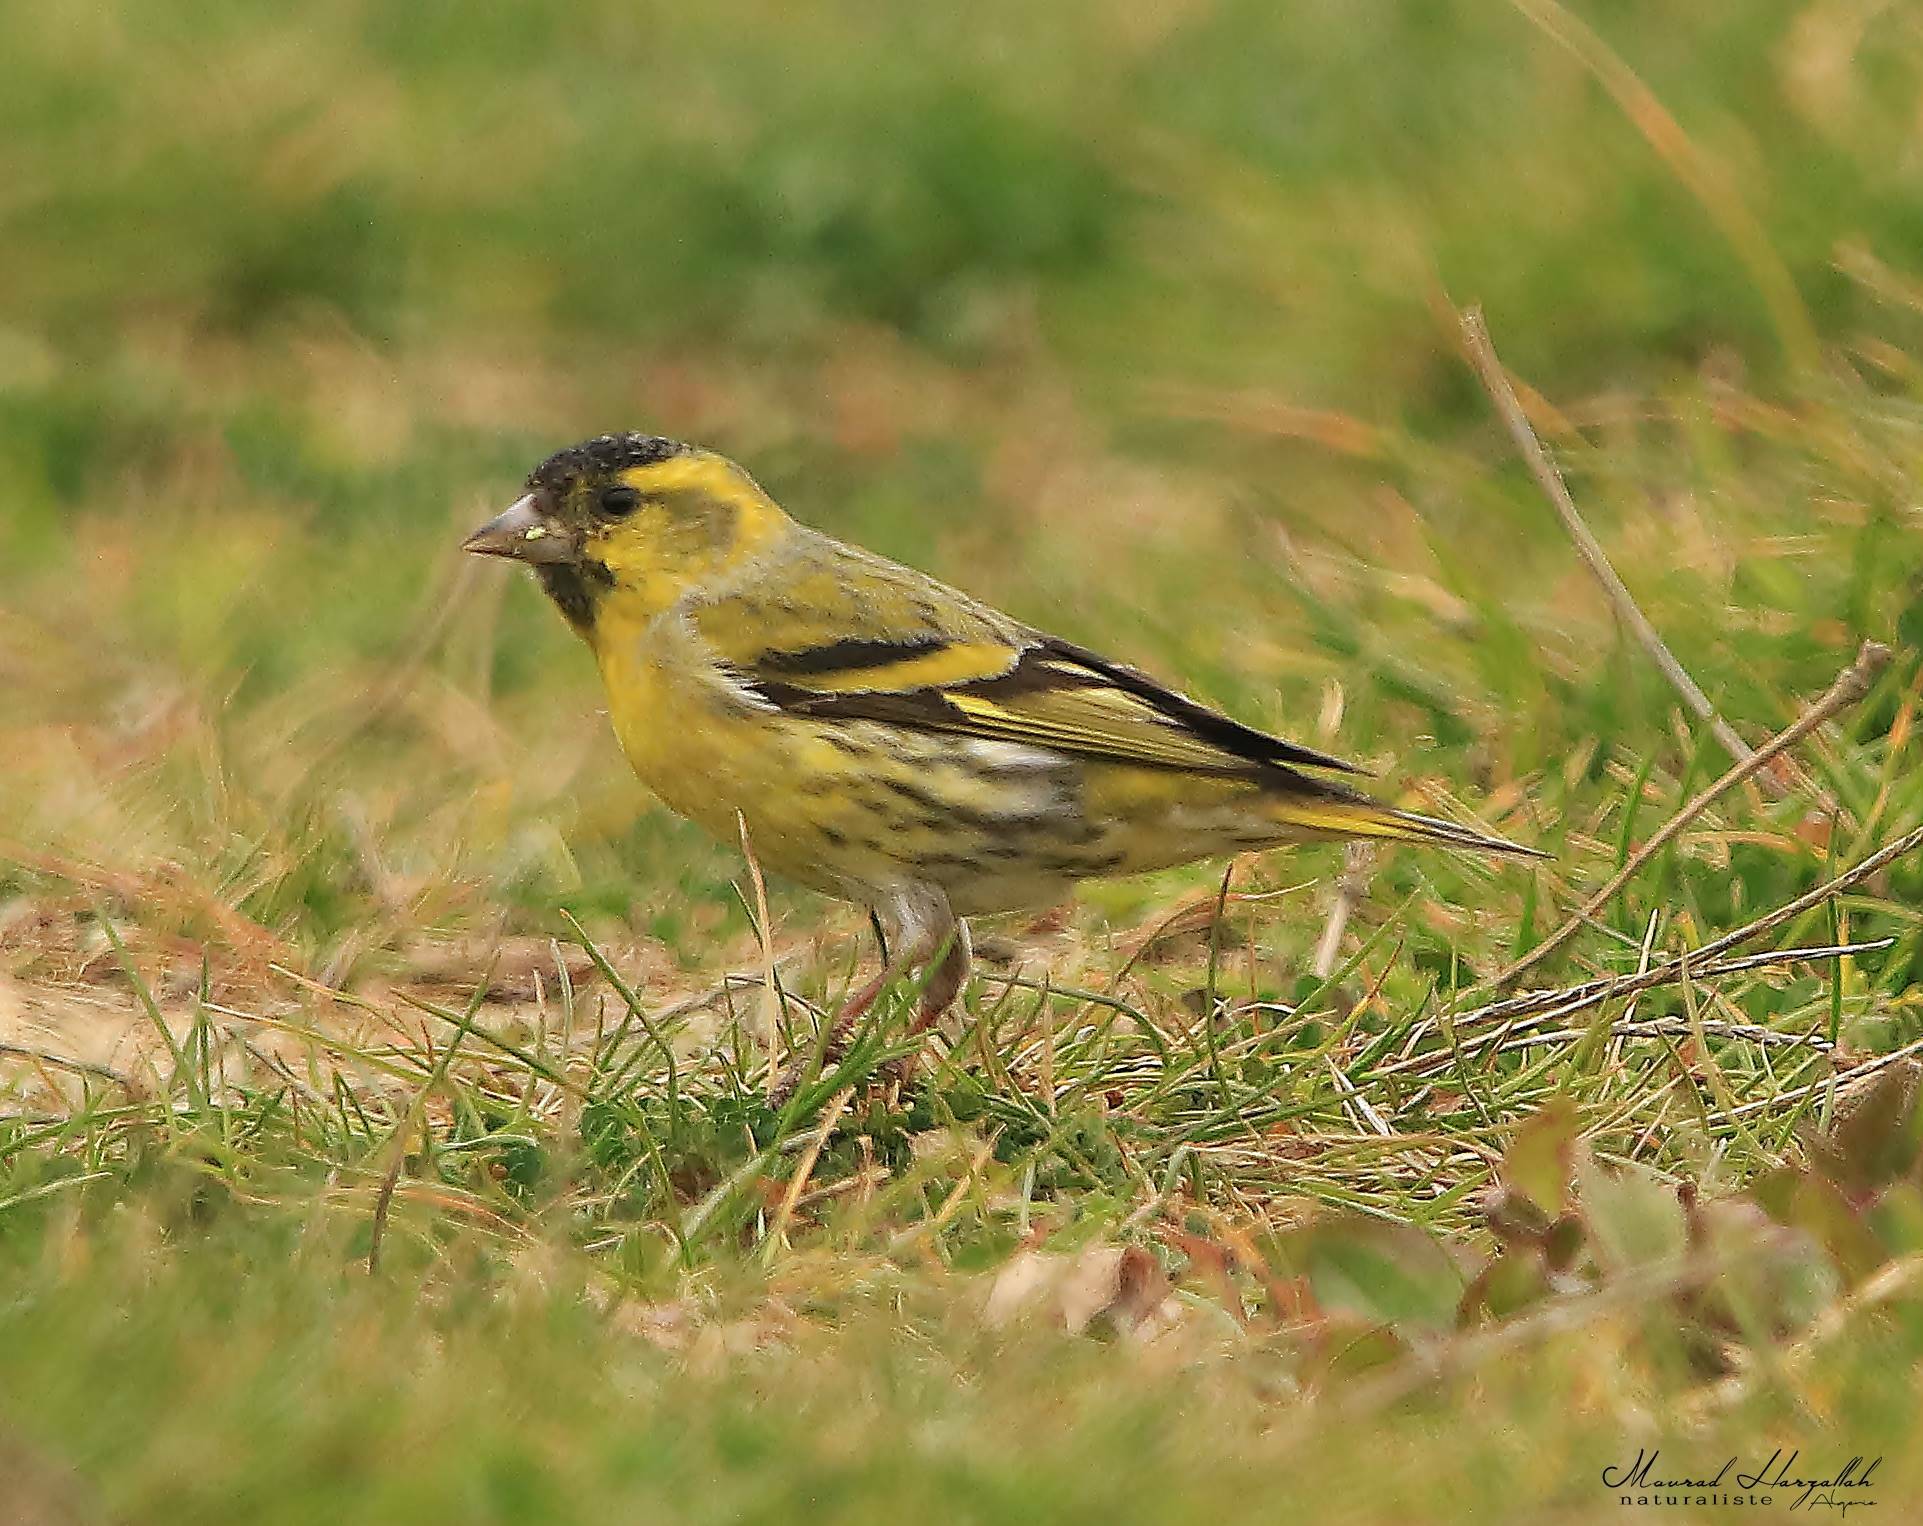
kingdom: Animalia
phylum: Chordata
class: Aves
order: Passeriformes
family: Fringillidae
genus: Spinus
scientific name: Spinus spinus
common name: Eurasian siskin
